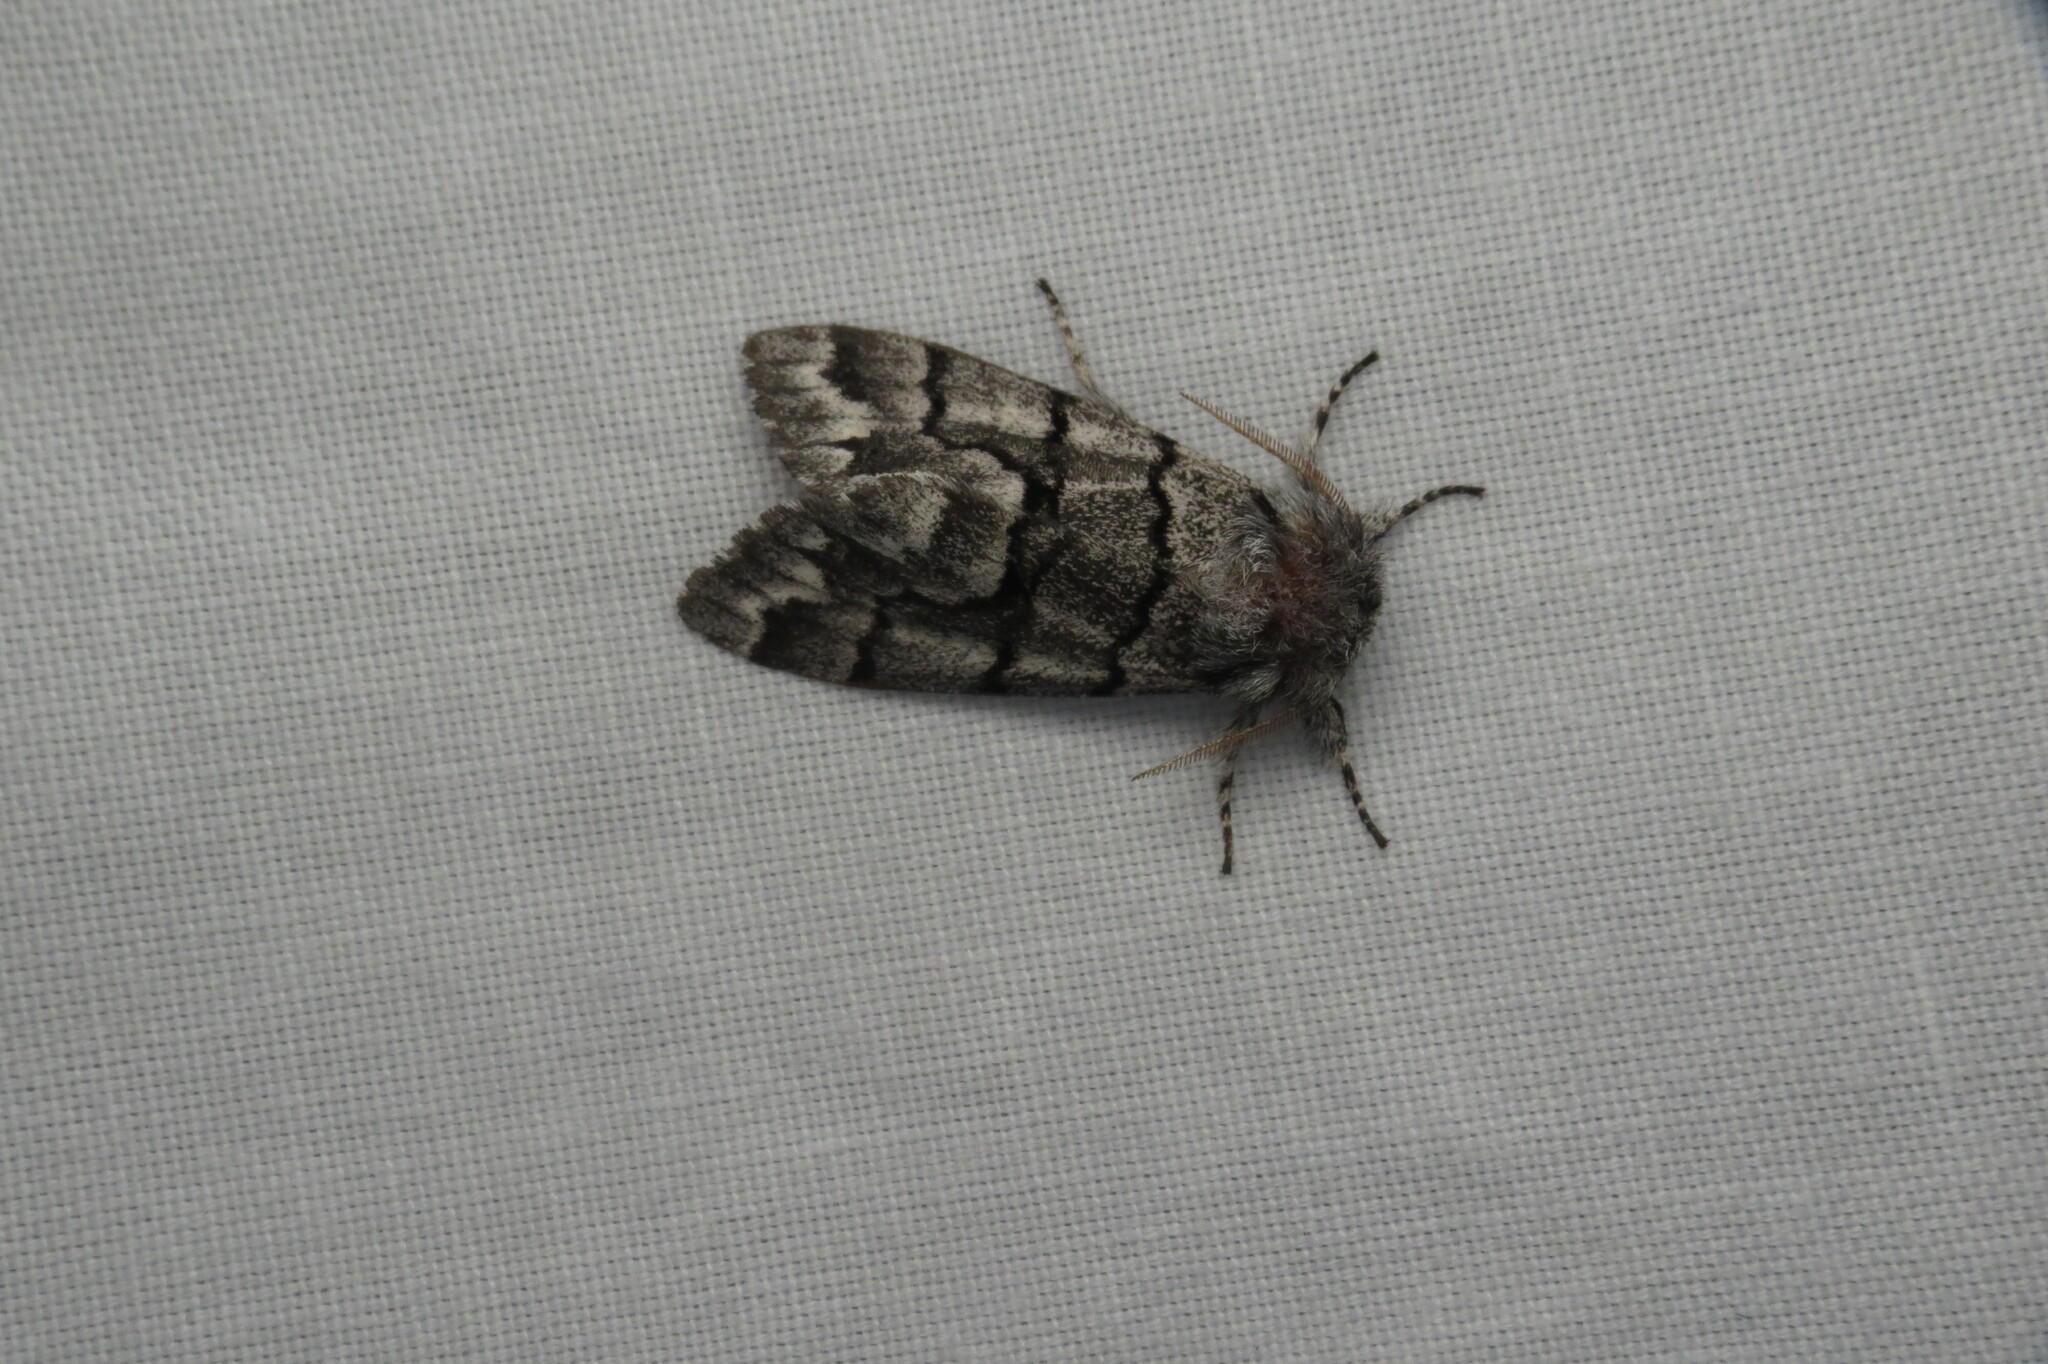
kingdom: Animalia
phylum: Arthropoda
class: Insecta
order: Lepidoptera
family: Noctuidae
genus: Panthea
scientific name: Panthea furcilla
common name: Eastern panthea moth
